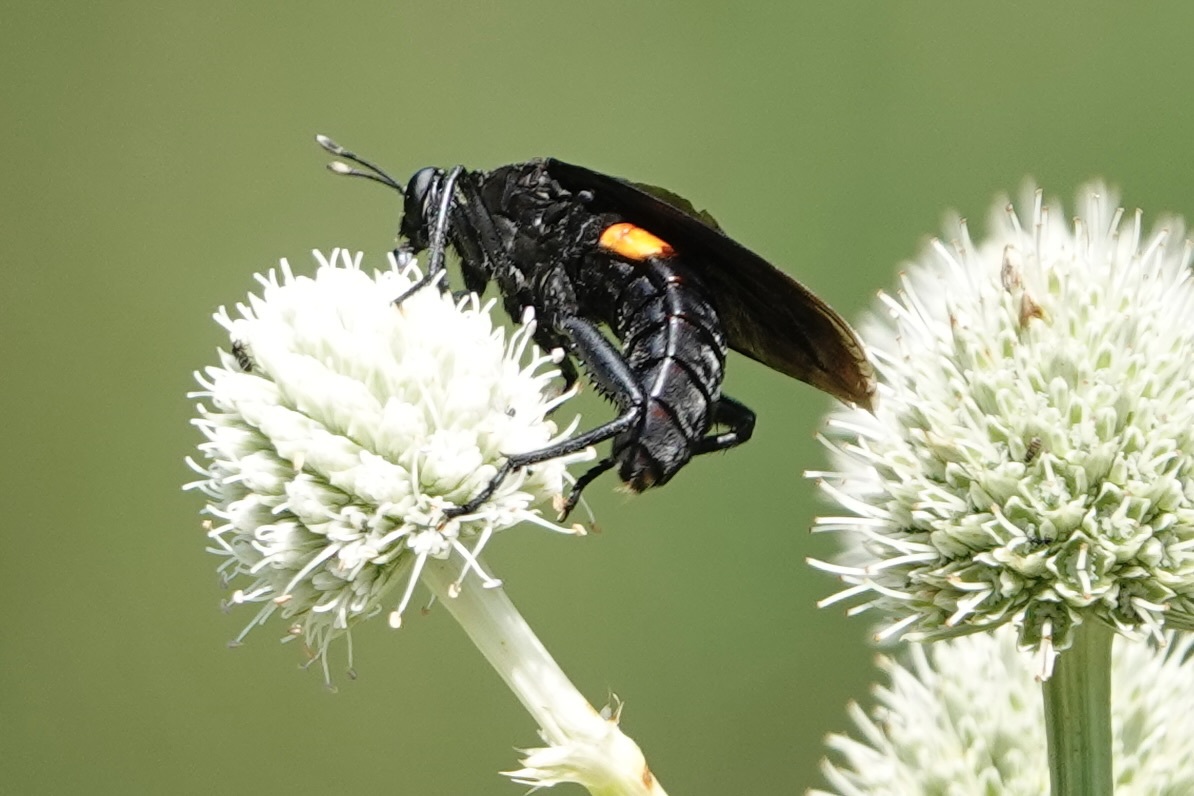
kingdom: Animalia
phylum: Arthropoda
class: Insecta
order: Diptera
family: Mydidae
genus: Mydas
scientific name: Mydas clavatus
